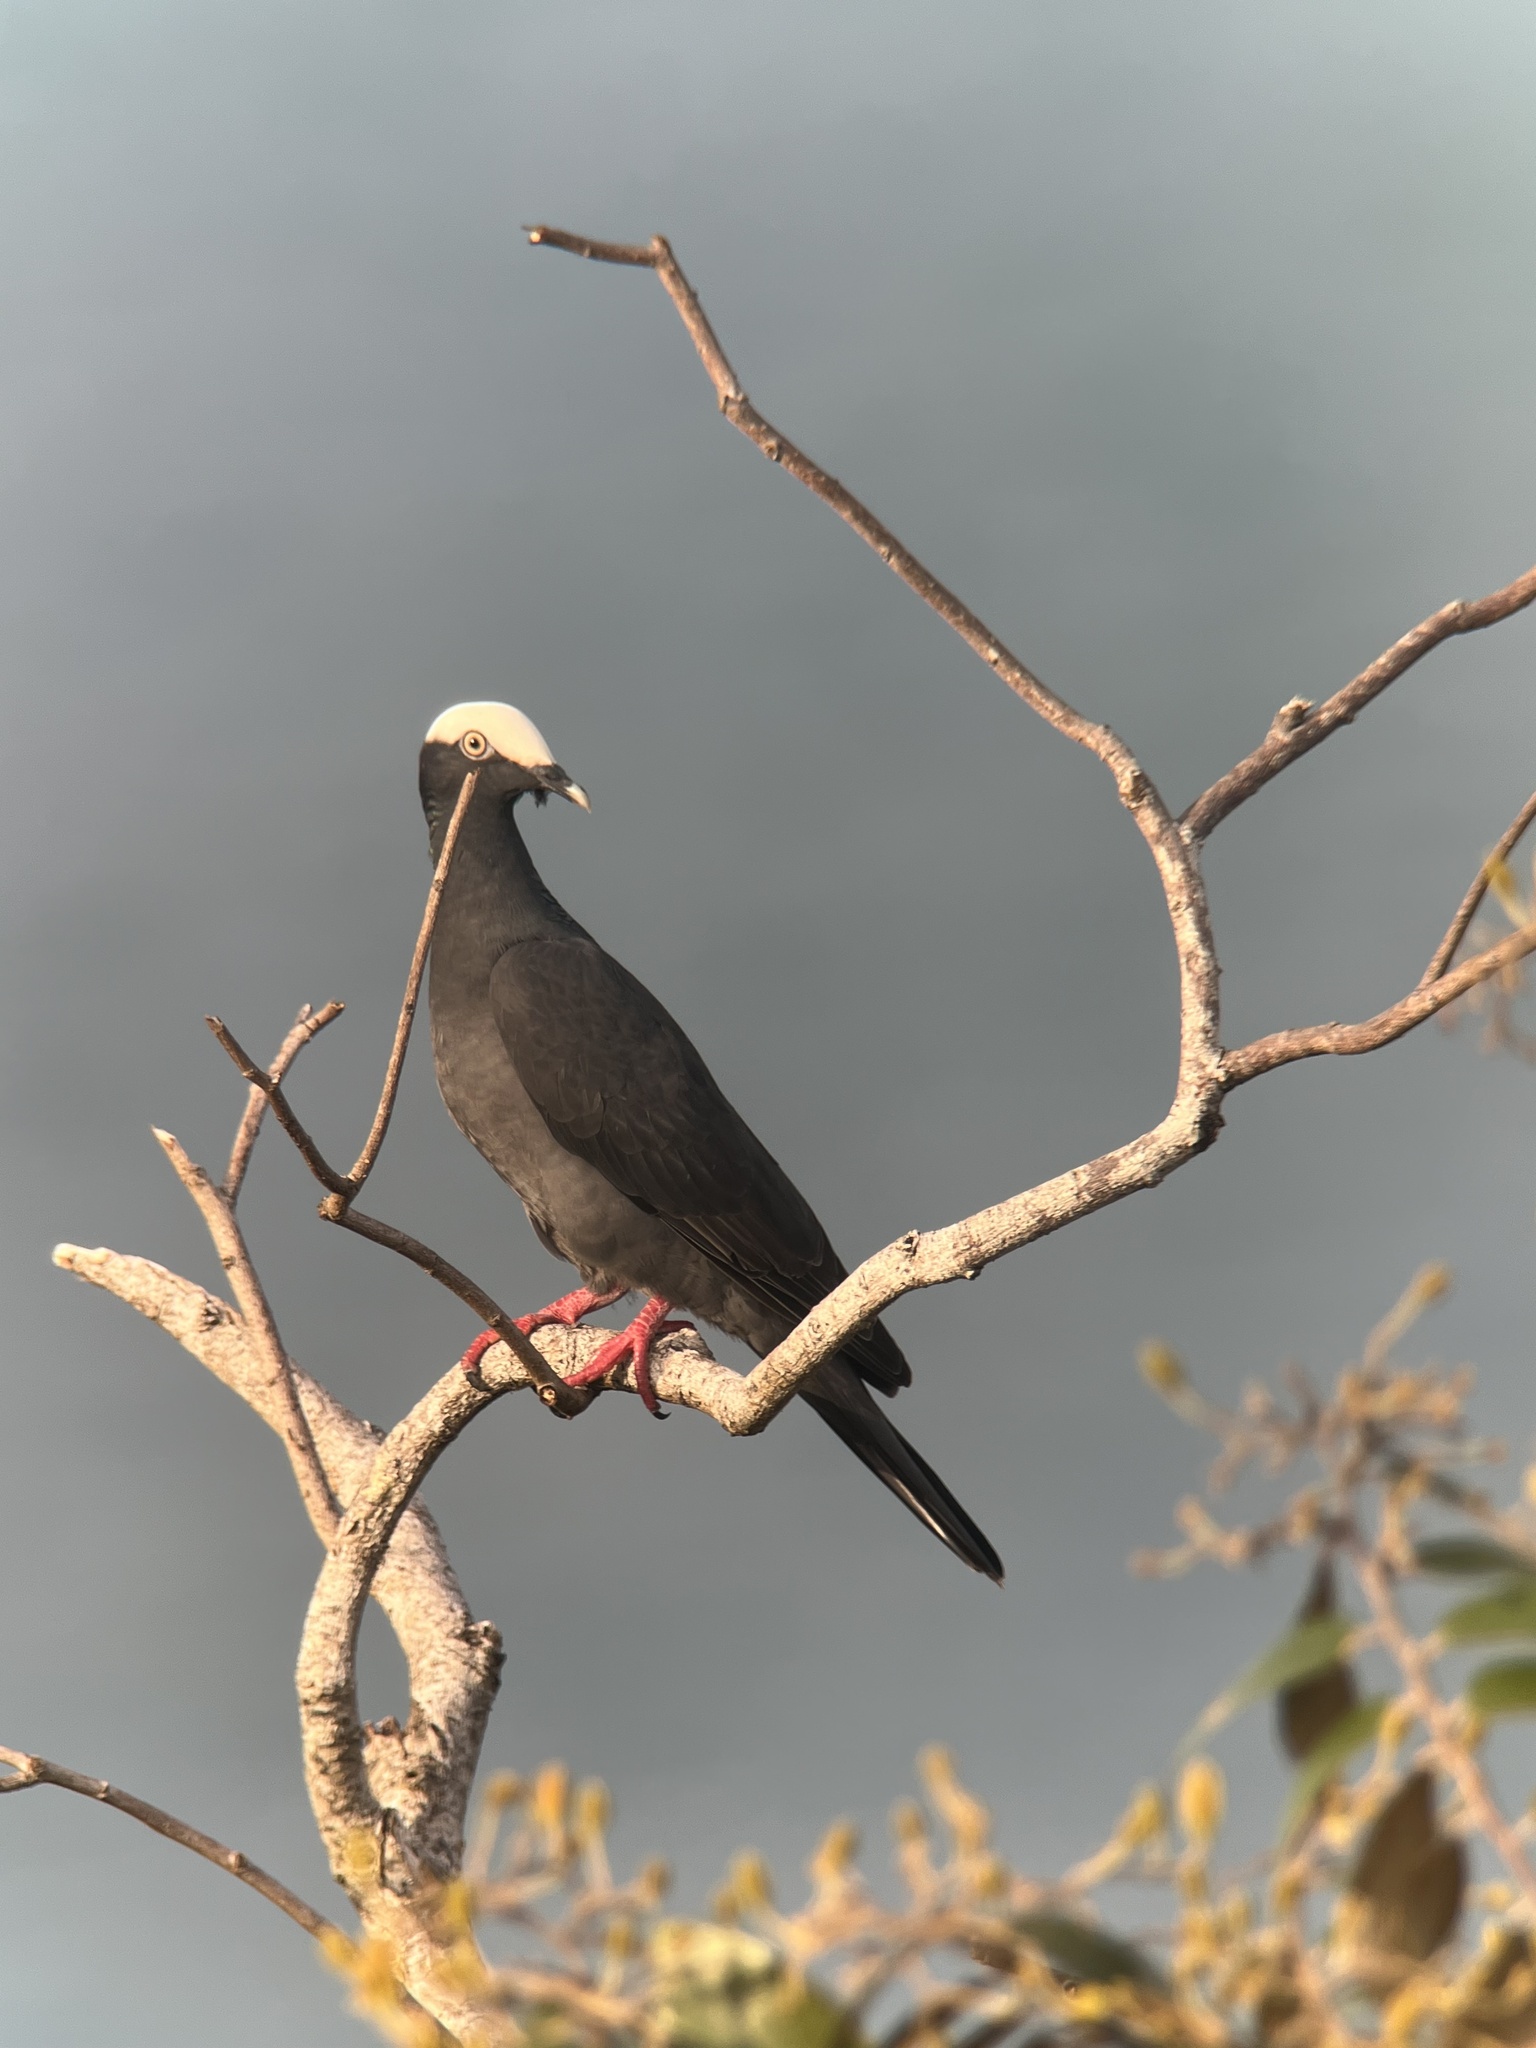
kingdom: Animalia
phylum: Chordata
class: Aves
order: Columbiformes
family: Columbidae
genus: Patagioenas
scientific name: Patagioenas leucocephala
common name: White-crowned pigeon
